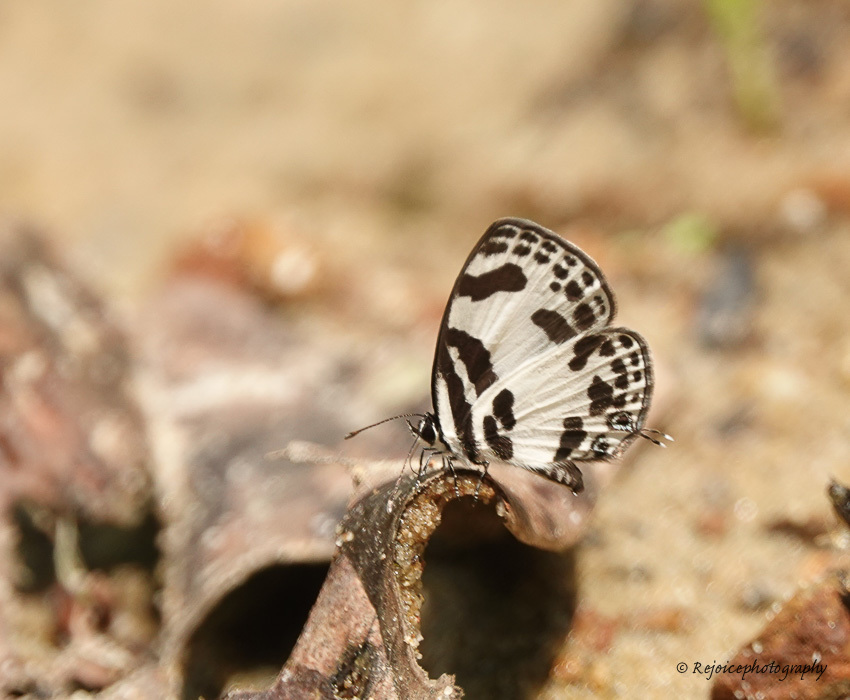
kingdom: Animalia
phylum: Arthropoda
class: Insecta
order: Lepidoptera
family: Lycaenidae
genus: Discolampa
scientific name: Discolampa ethion
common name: Banded blue pierrot
